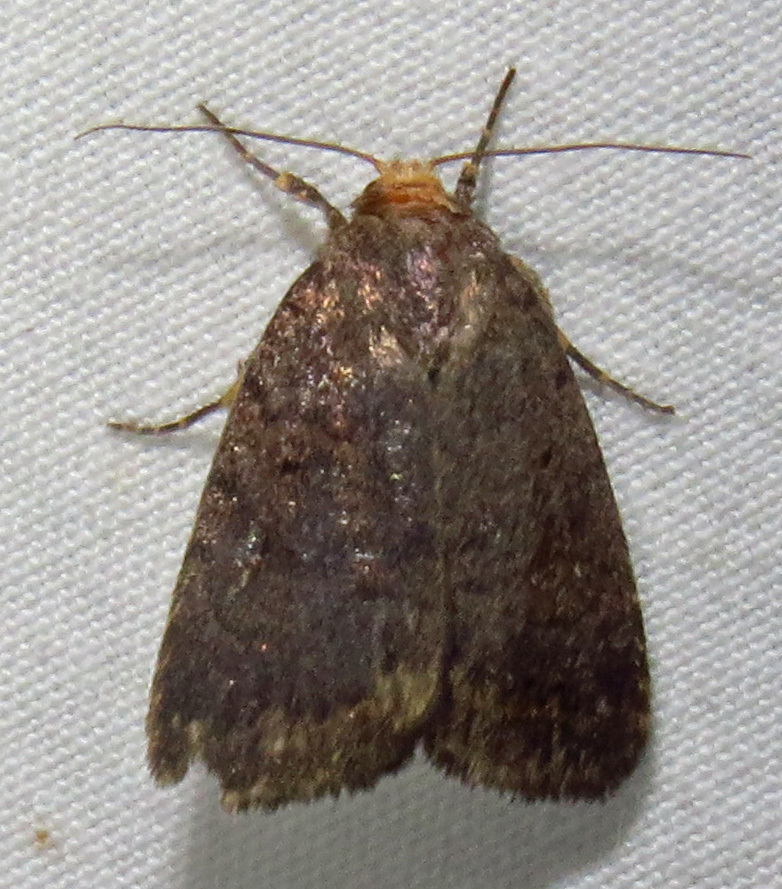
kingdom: Animalia
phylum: Arthropoda
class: Insecta
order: Lepidoptera
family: Noctuidae
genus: Athetis
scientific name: Athetis tarda
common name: Slowpoke moth
